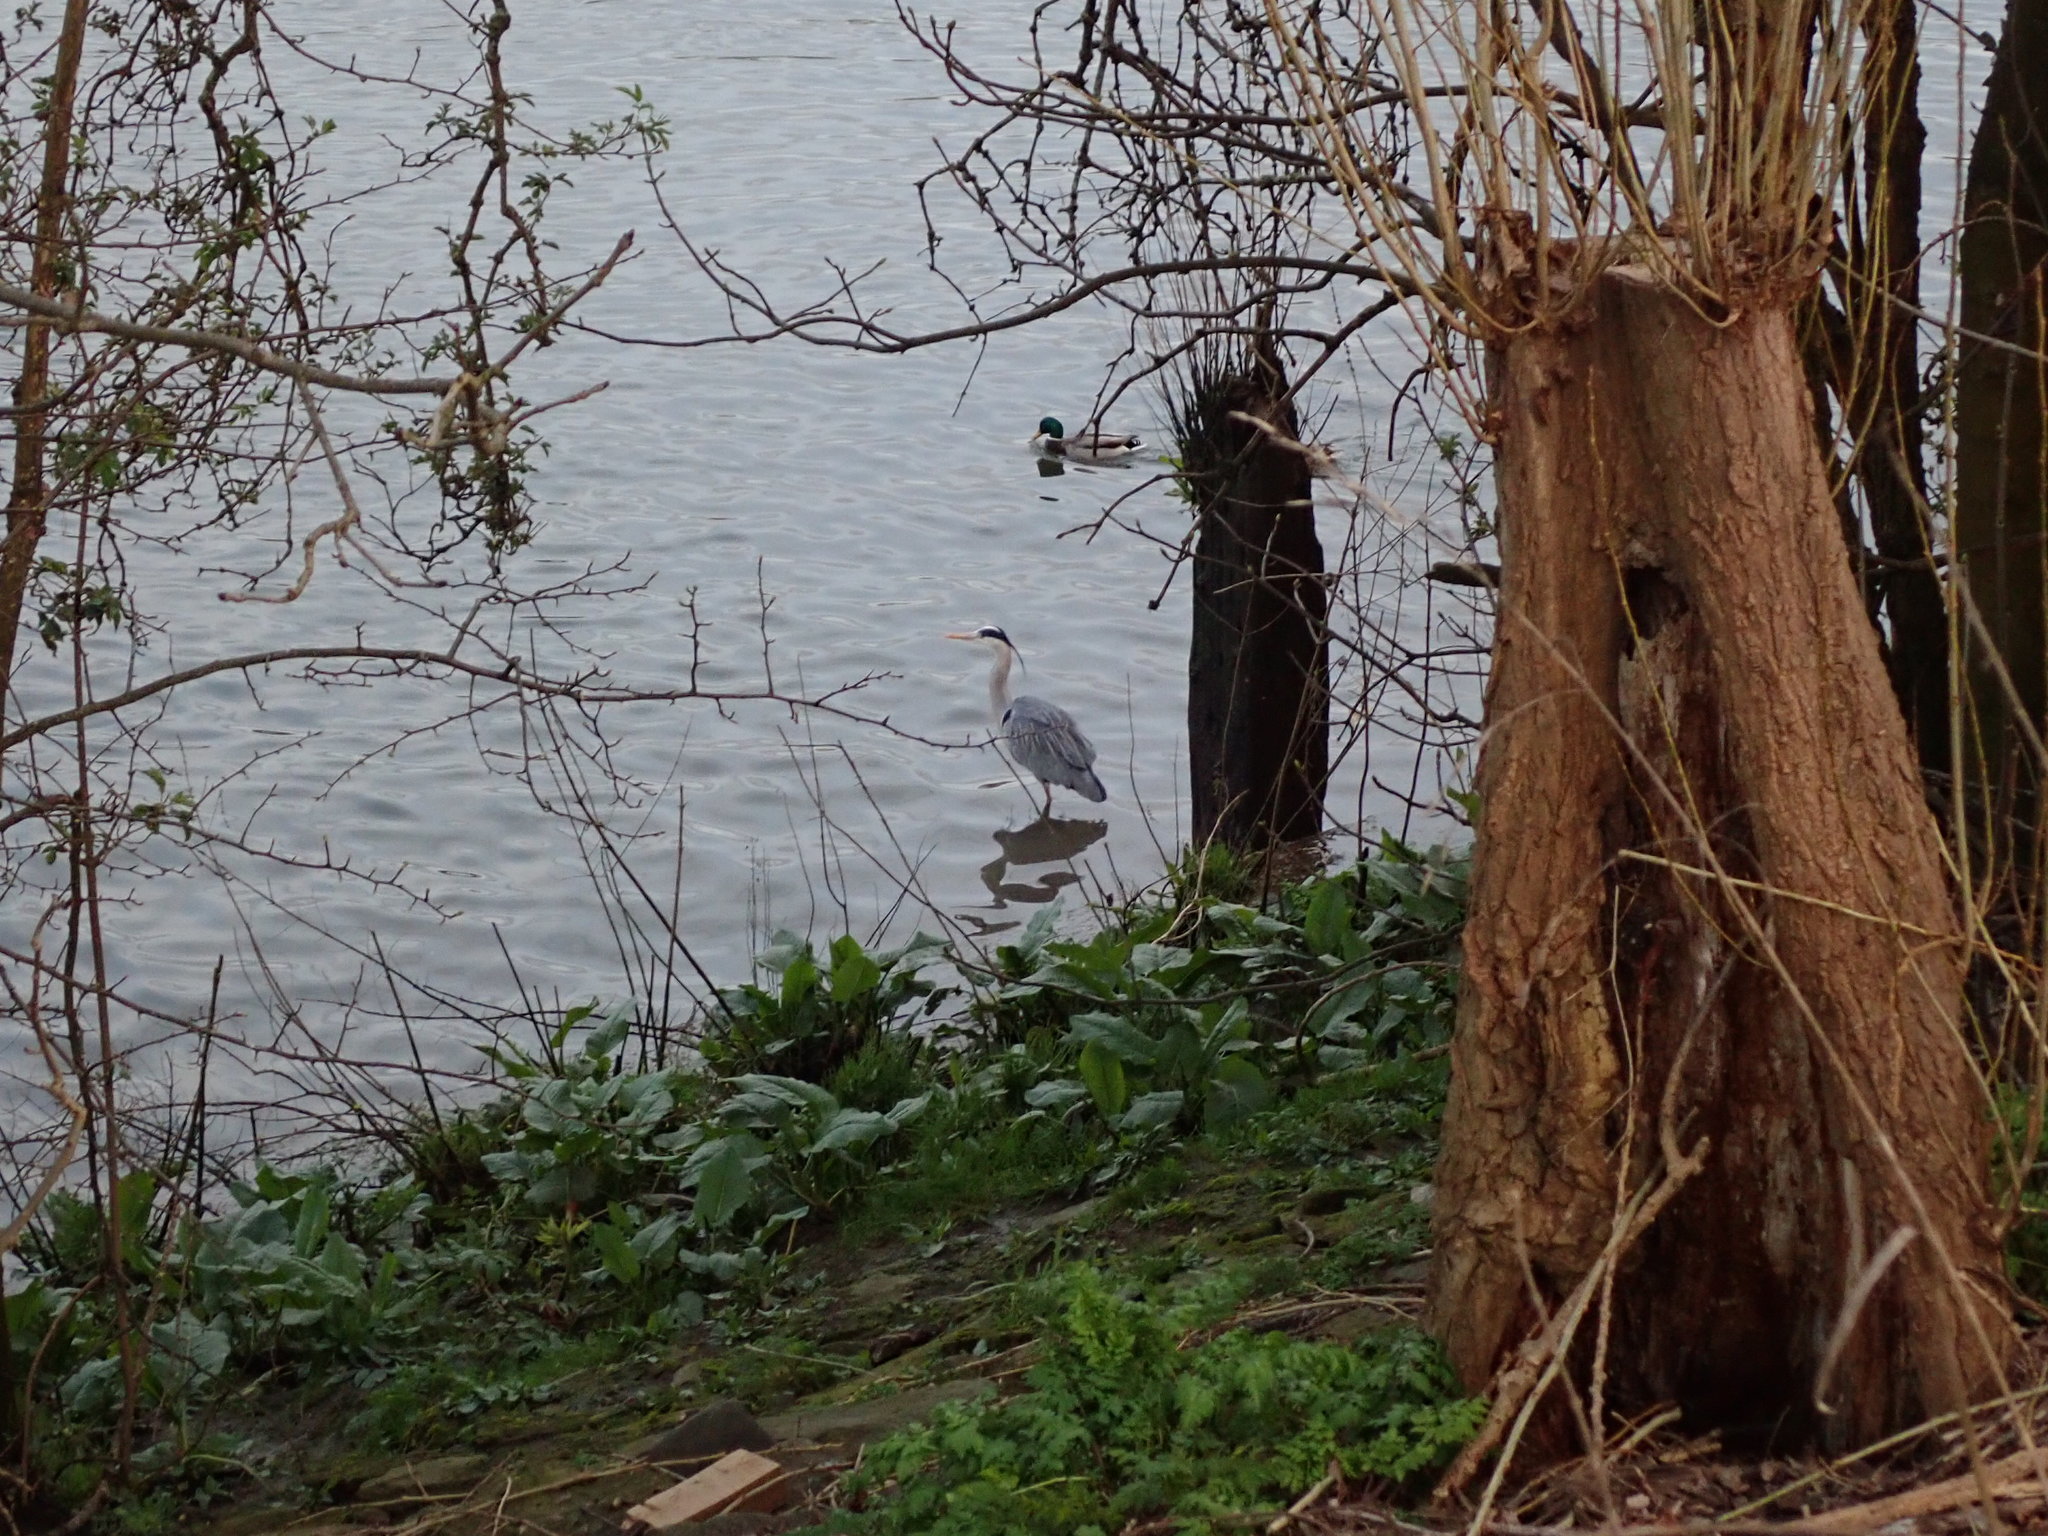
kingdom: Animalia
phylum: Chordata
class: Aves
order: Pelecaniformes
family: Ardeidae
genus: Ardea
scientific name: Ardea cinerea
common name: Grey heron
